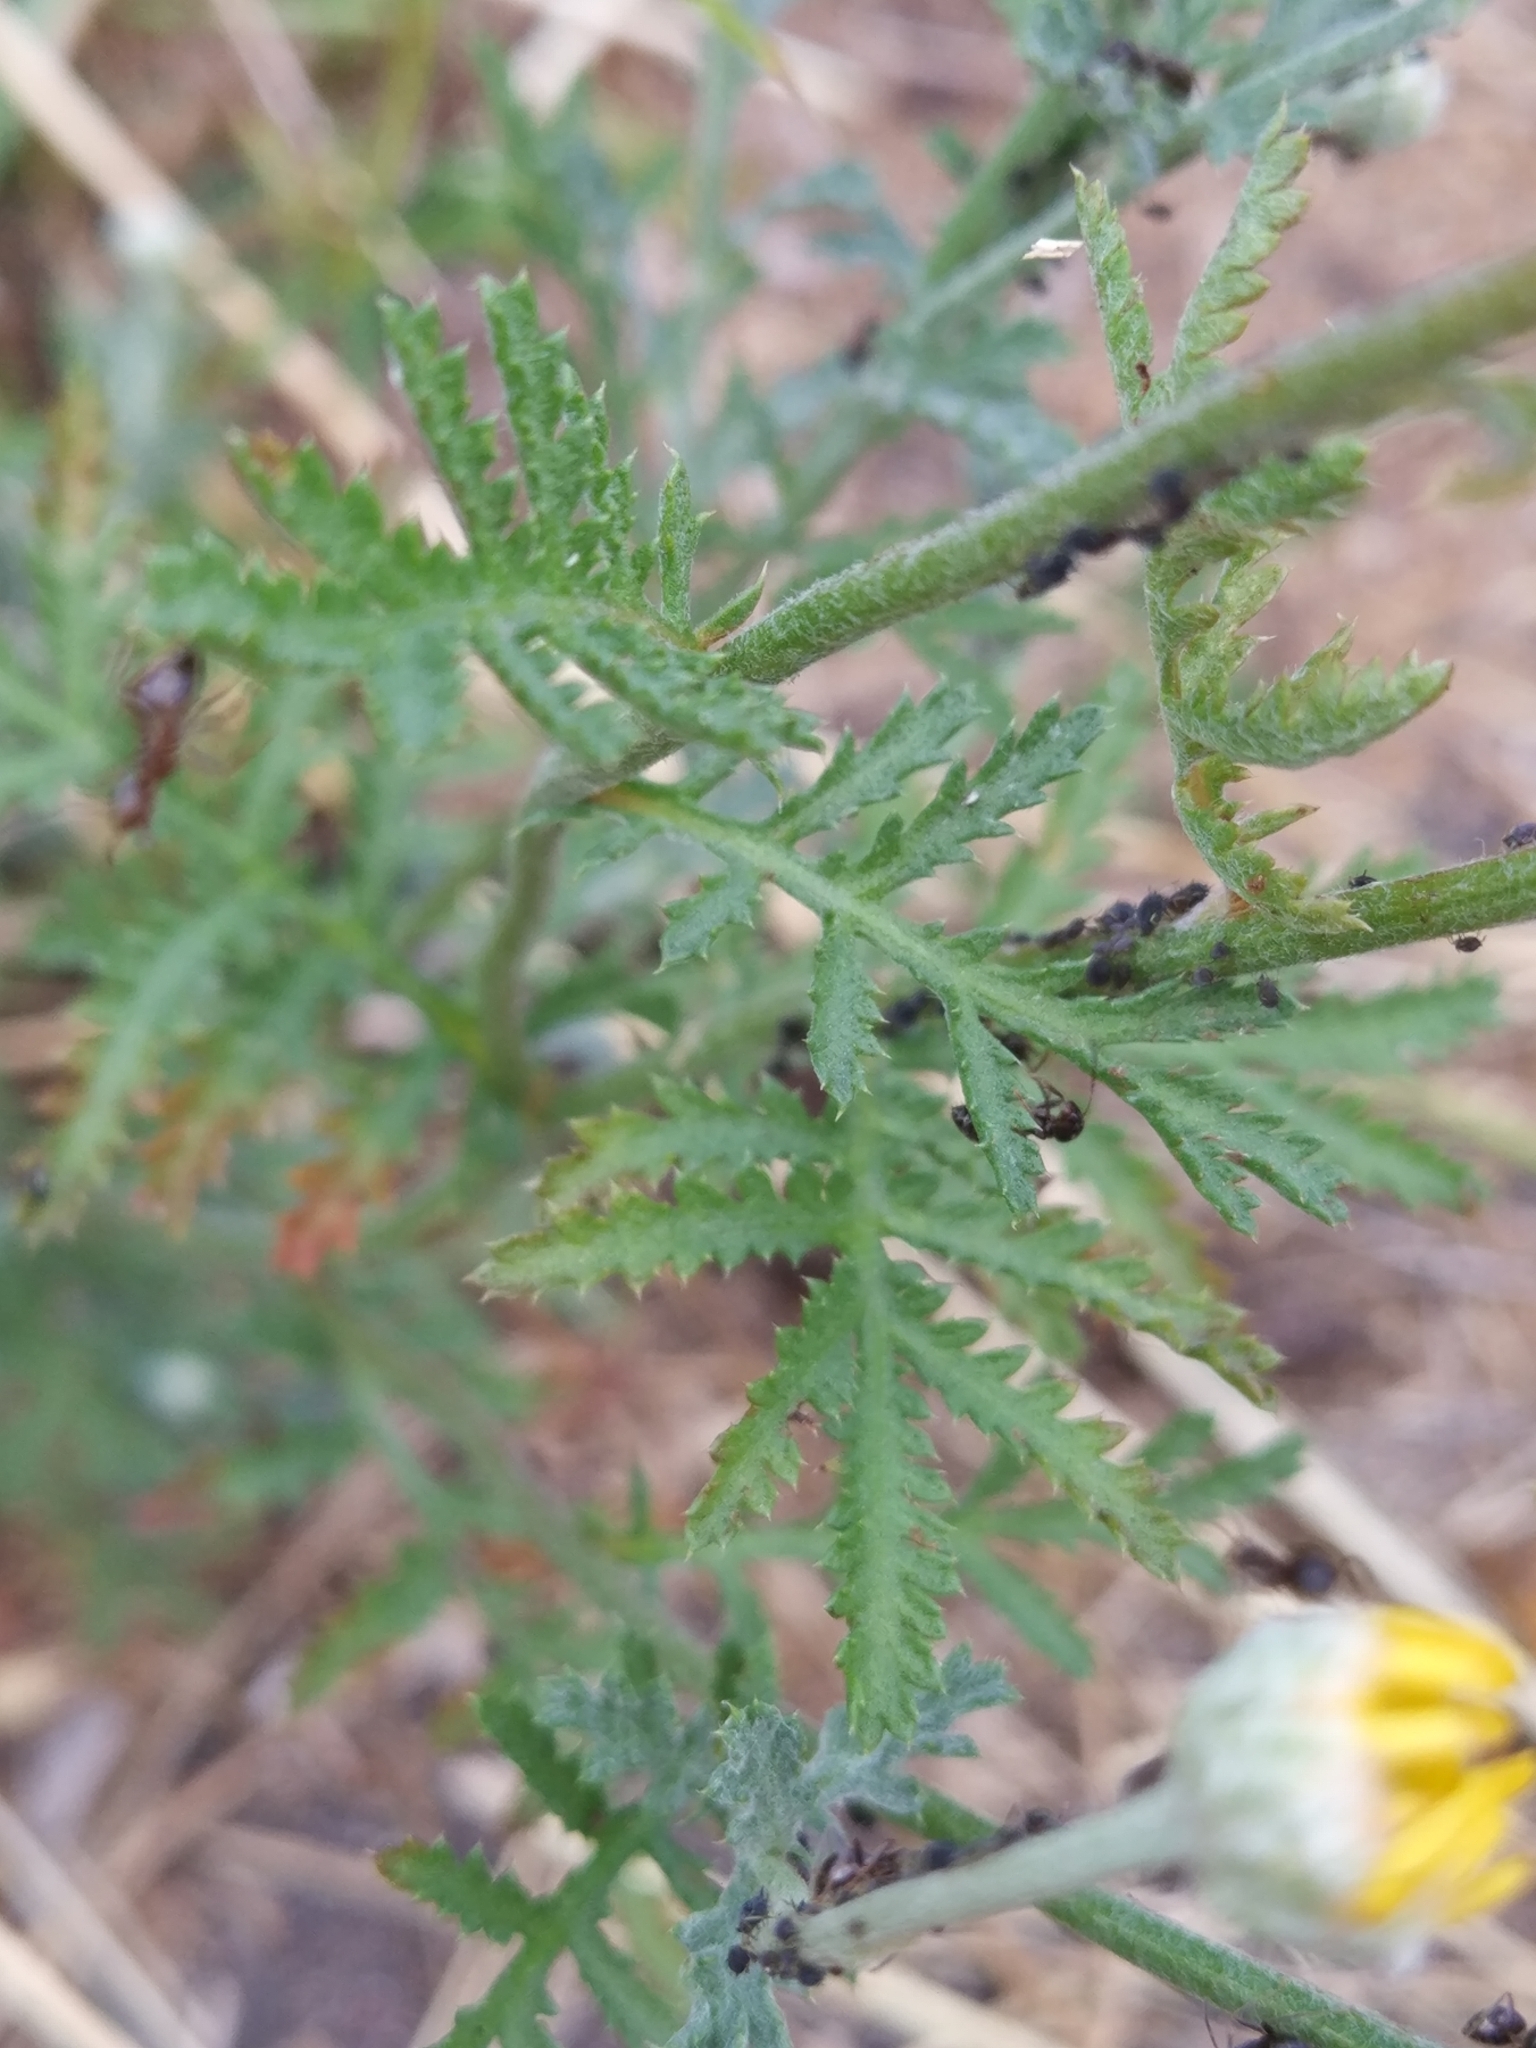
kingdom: Plantae
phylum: Tracheophyta
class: Magnoliopsida
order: Asterales
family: Asteraceae
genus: Cota
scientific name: Cota tinctoria
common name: Golden chamomile
